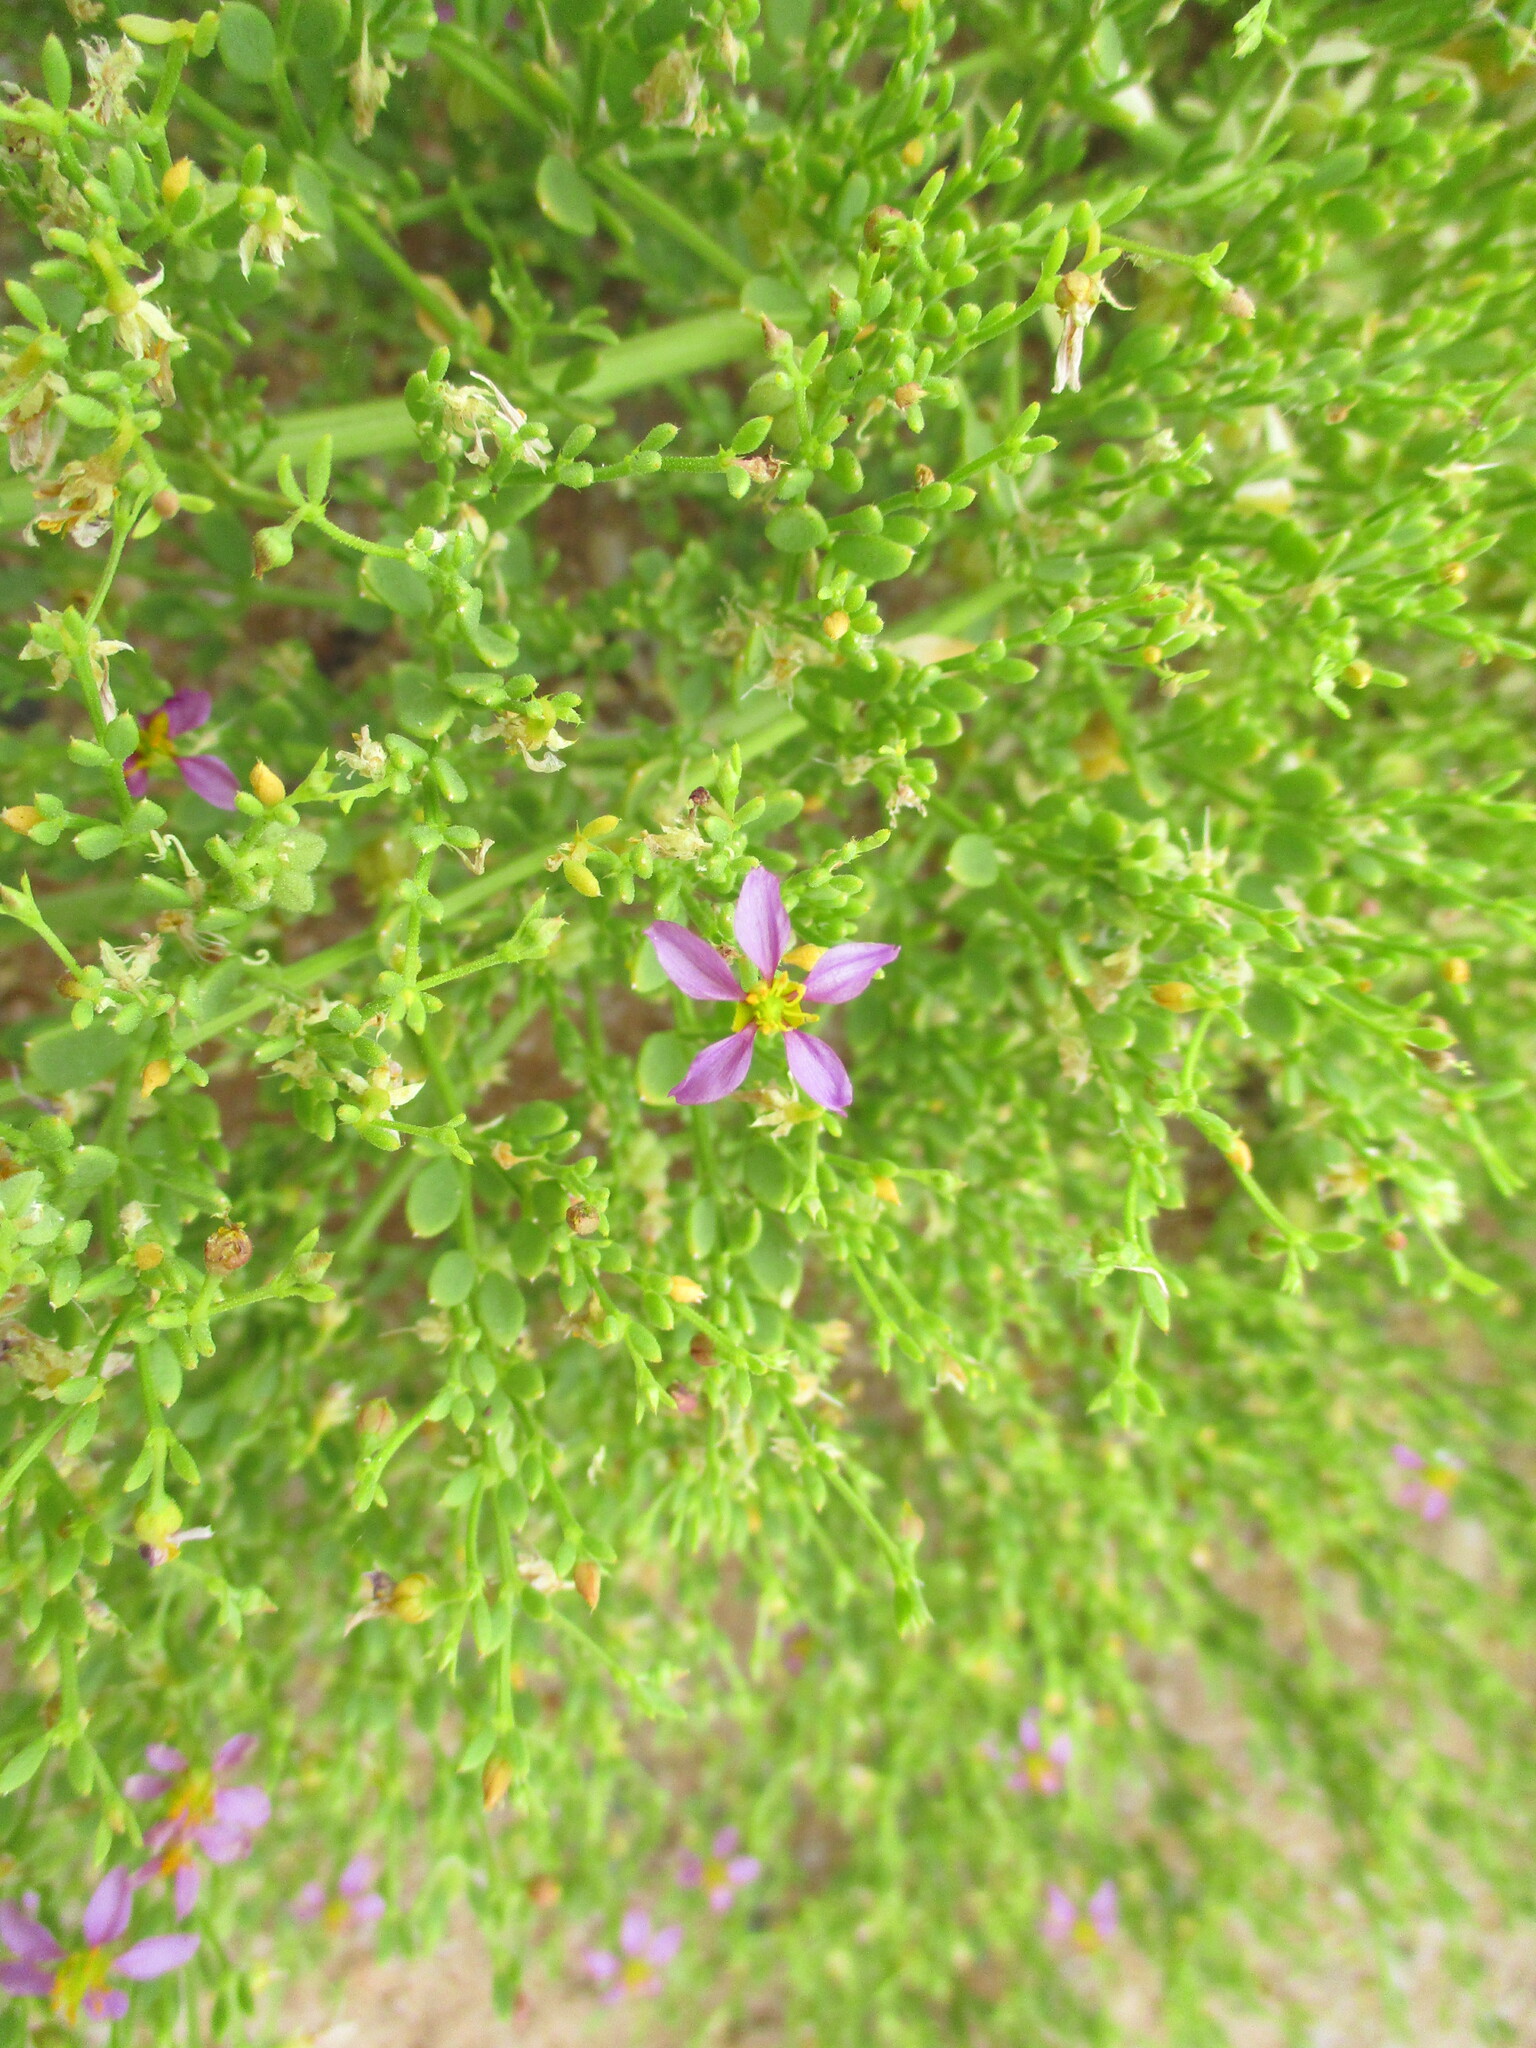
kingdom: Plantae
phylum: Tracheophyta
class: Magnoliopsida
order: Zygophyllales
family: Zygophyllaceae
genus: Fagonia
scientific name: Fagonia scabra
